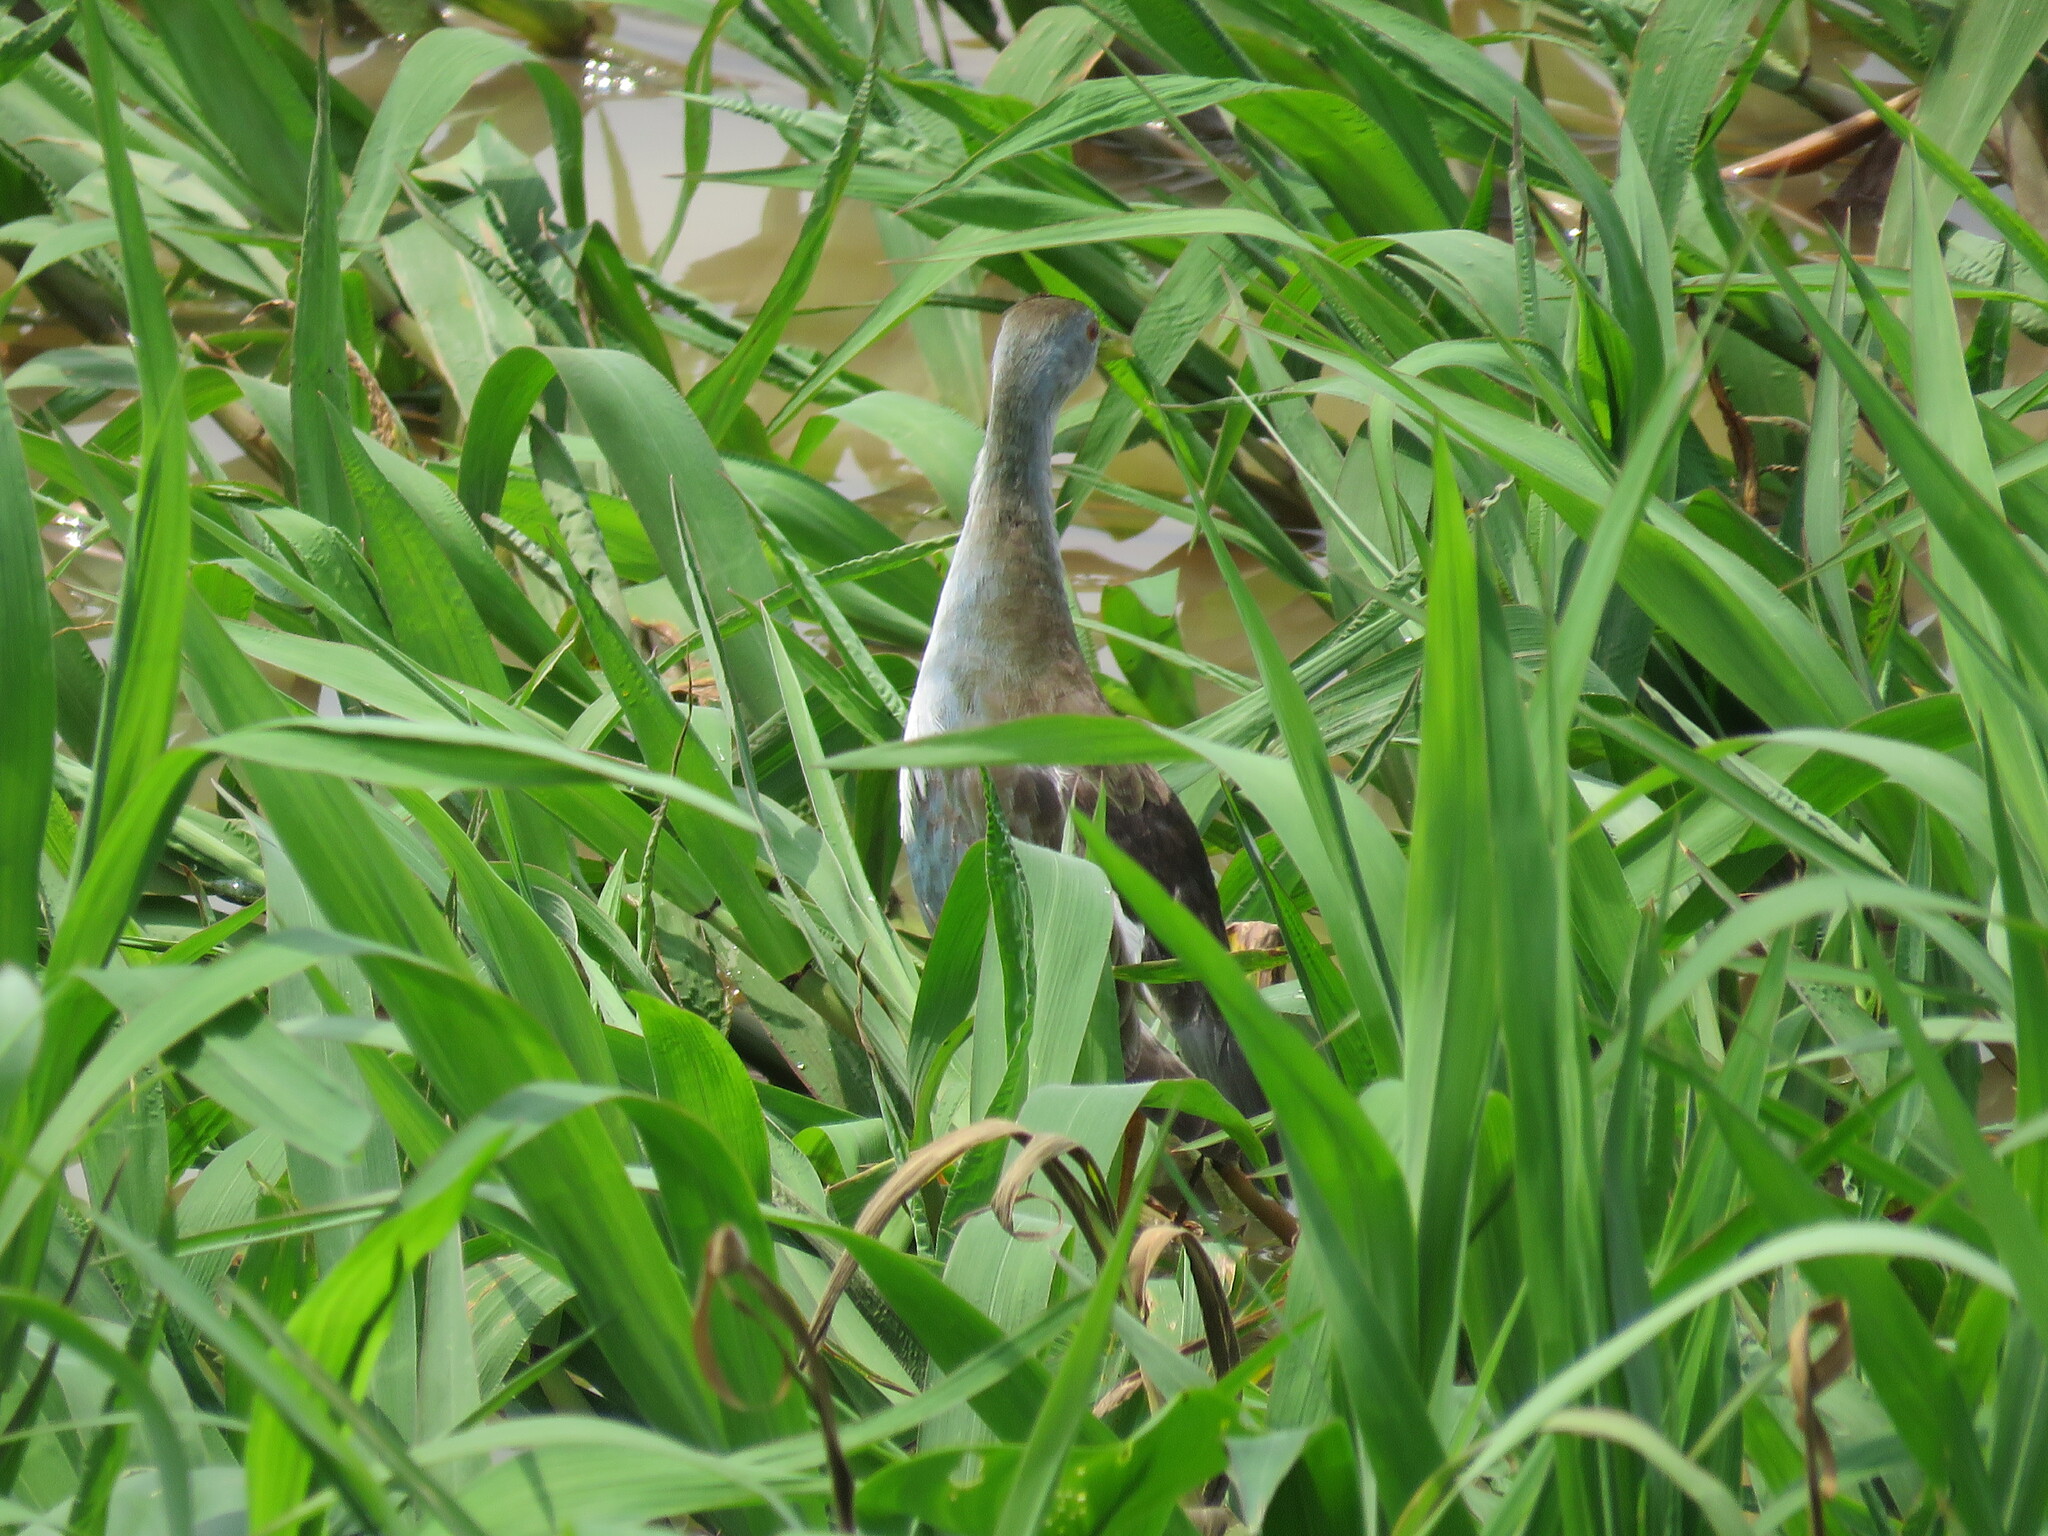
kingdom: Animalia
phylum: Chordata
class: Aves
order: Gruiformes
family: Rallidae
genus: Porphyrio
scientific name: Porphyrio flavirostris
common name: Azure gallinule
